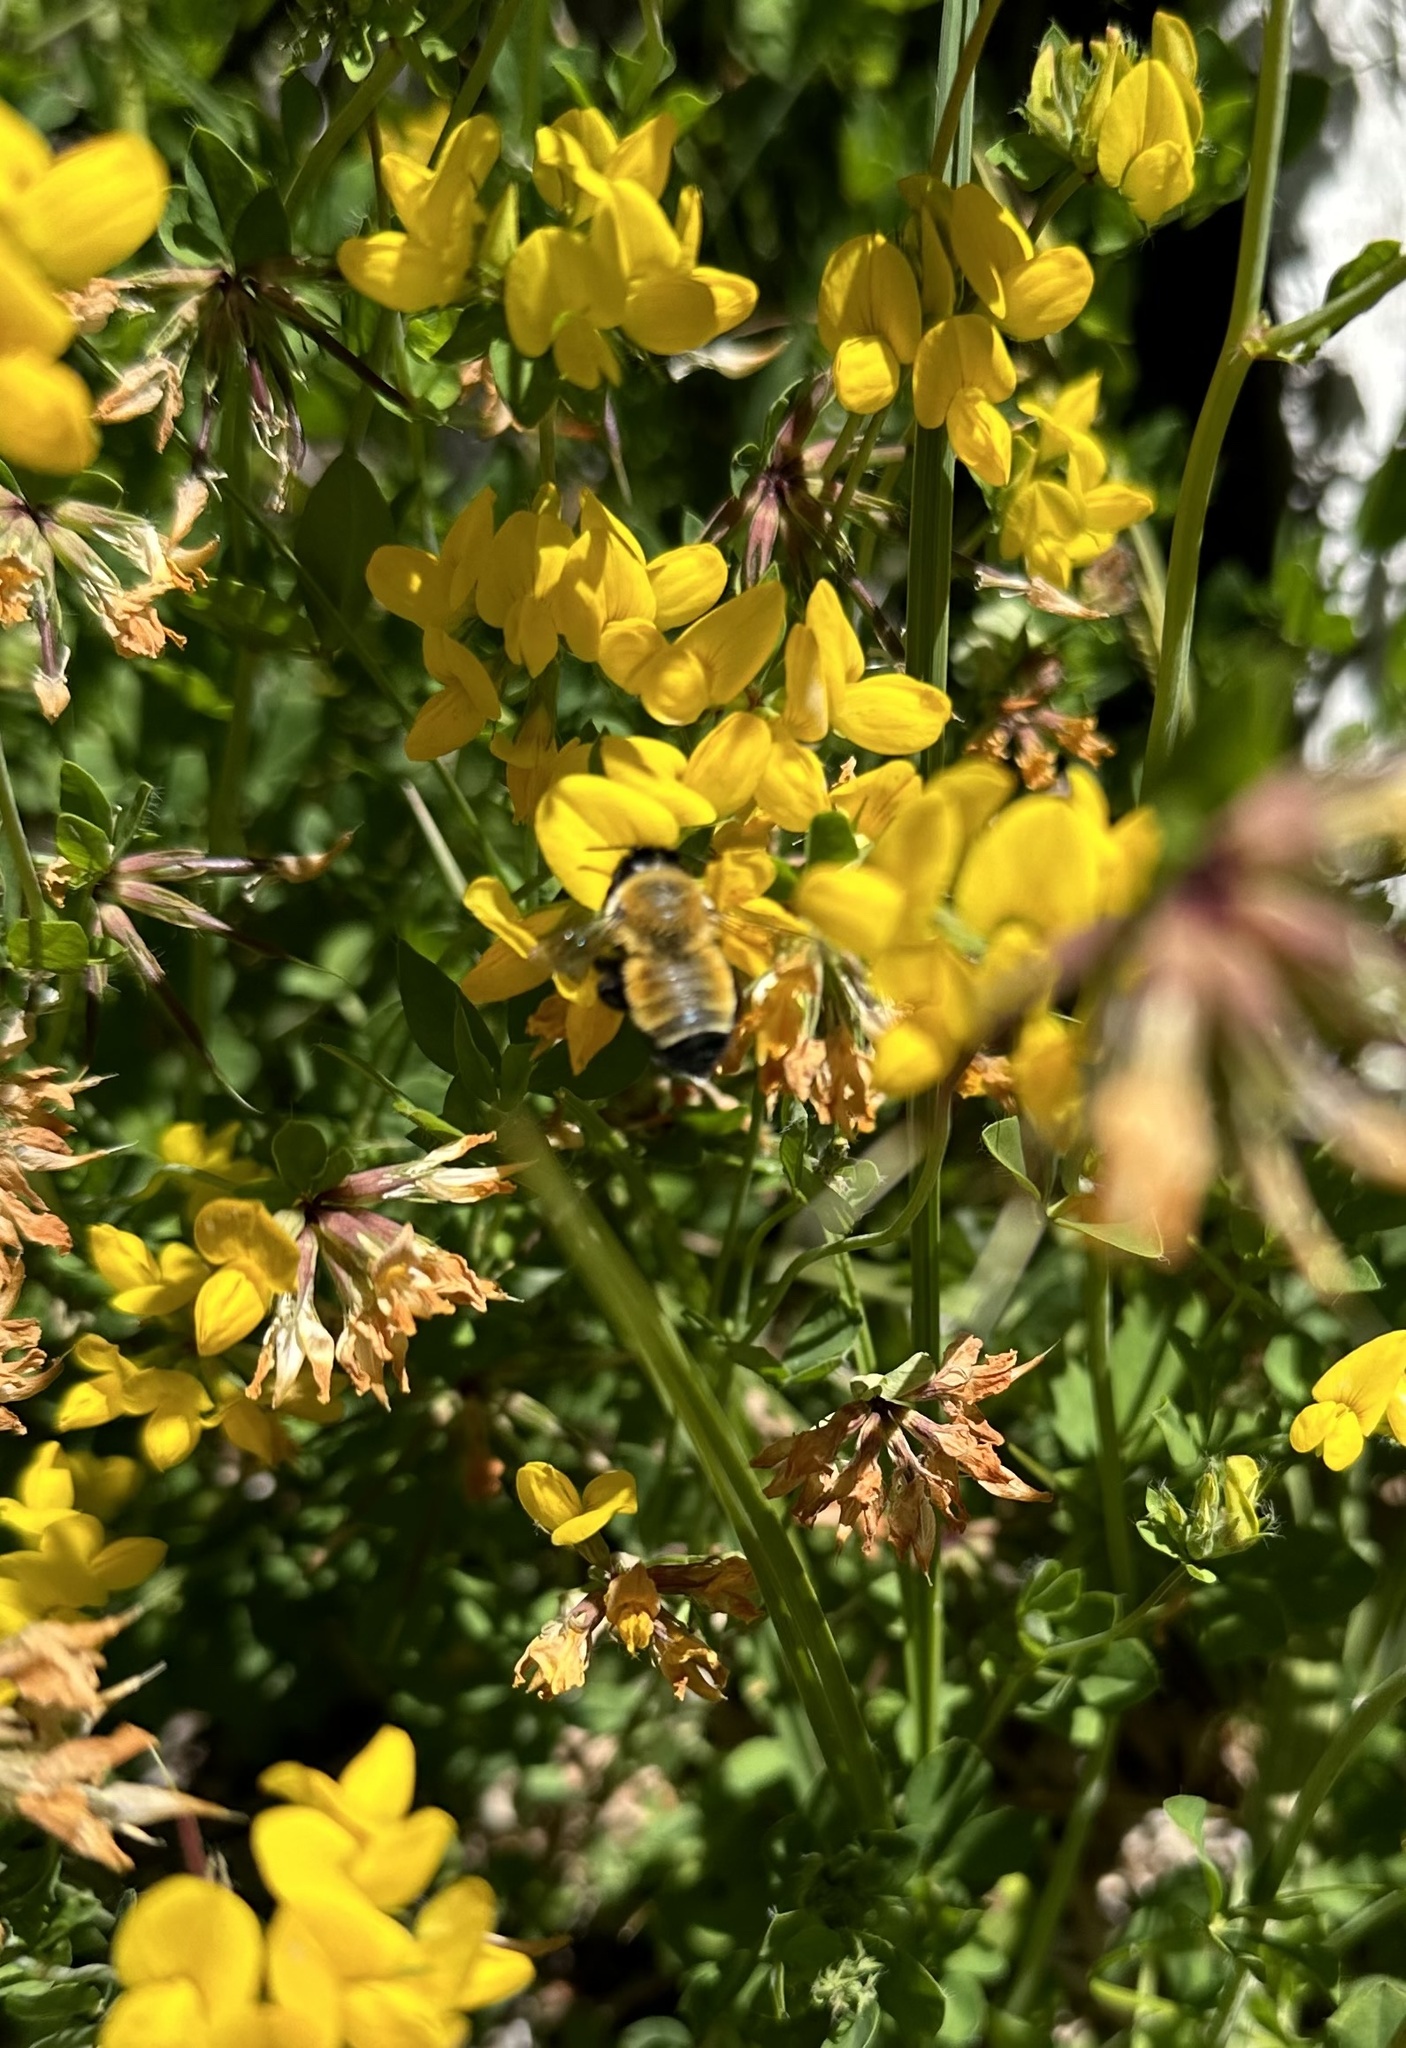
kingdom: Animalia
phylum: Arthropoda
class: Insecta
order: Hymenoptera
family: Megachilidae
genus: Megachile
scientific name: Megachile semirufa
